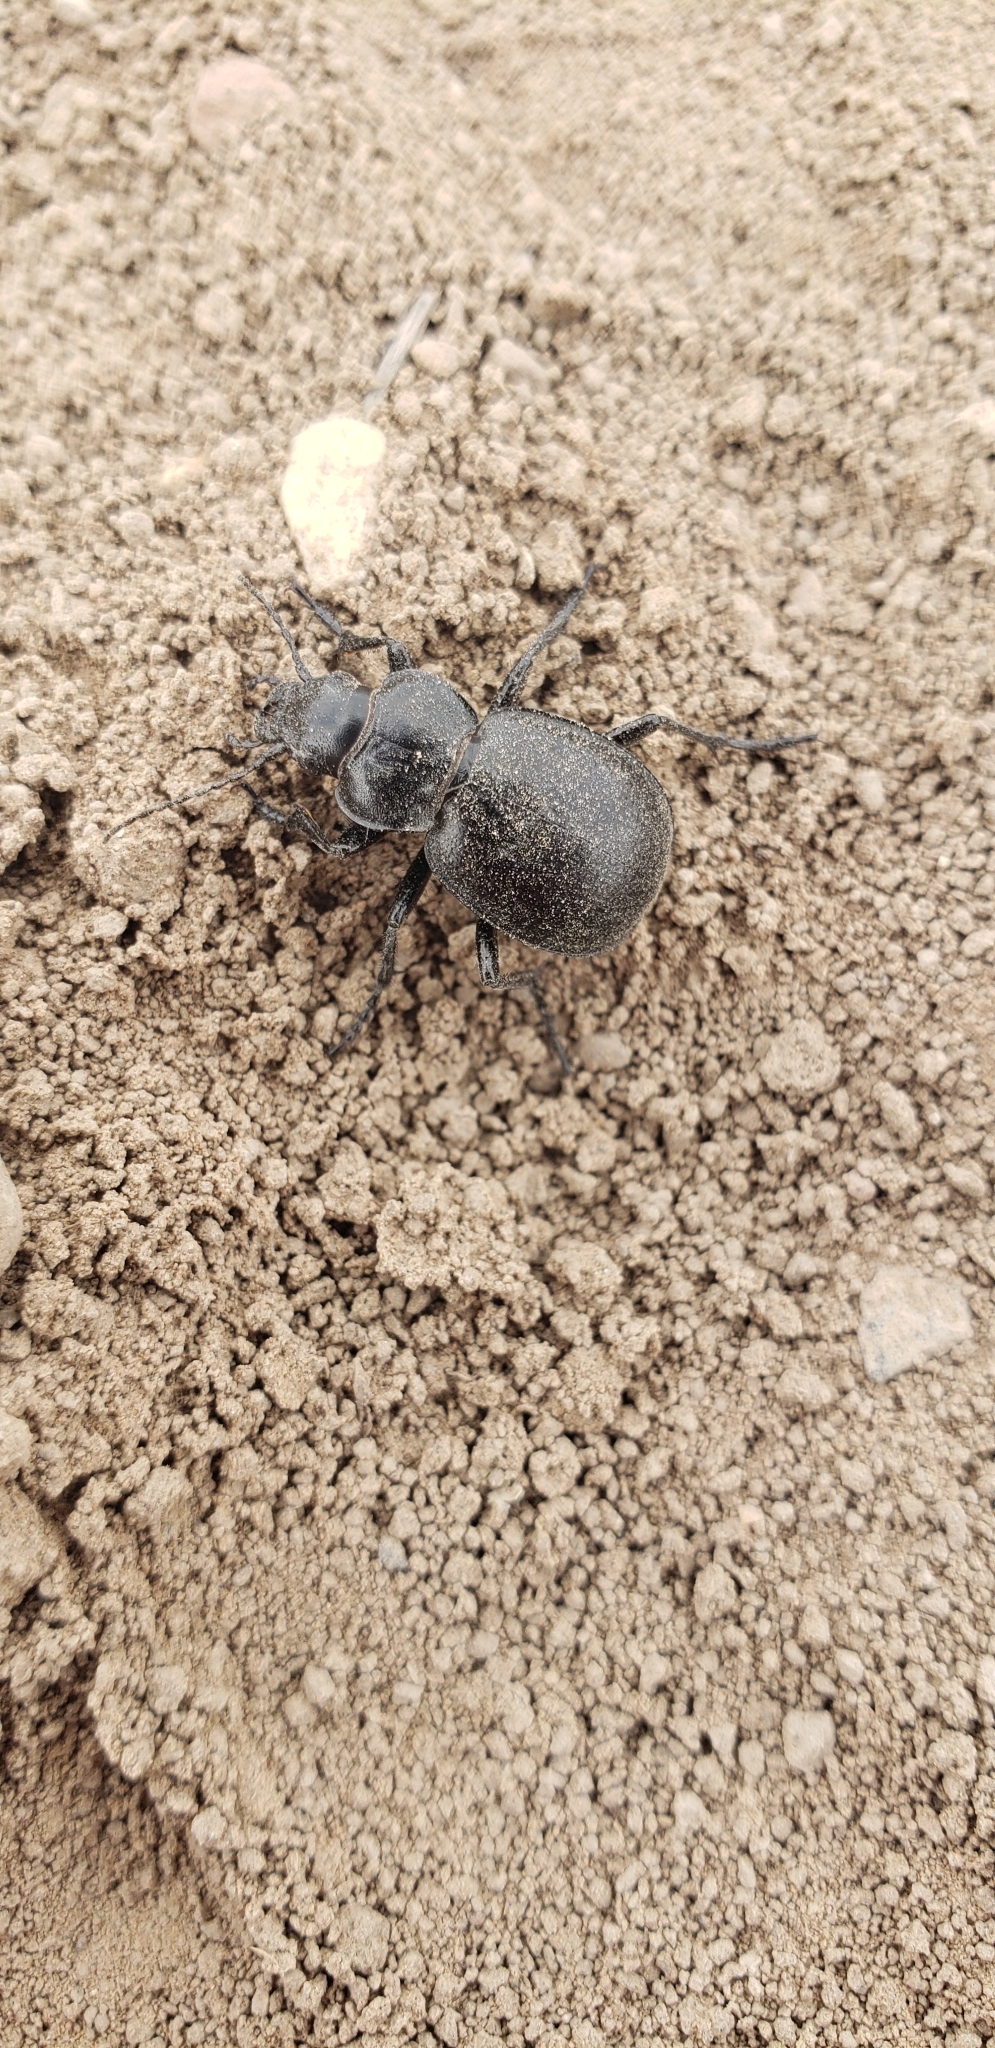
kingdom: Animalia
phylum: Arthropoda
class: Insecta
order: Coleoptera
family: Carabidae
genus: Calosoma
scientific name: Calosoma luxatum
